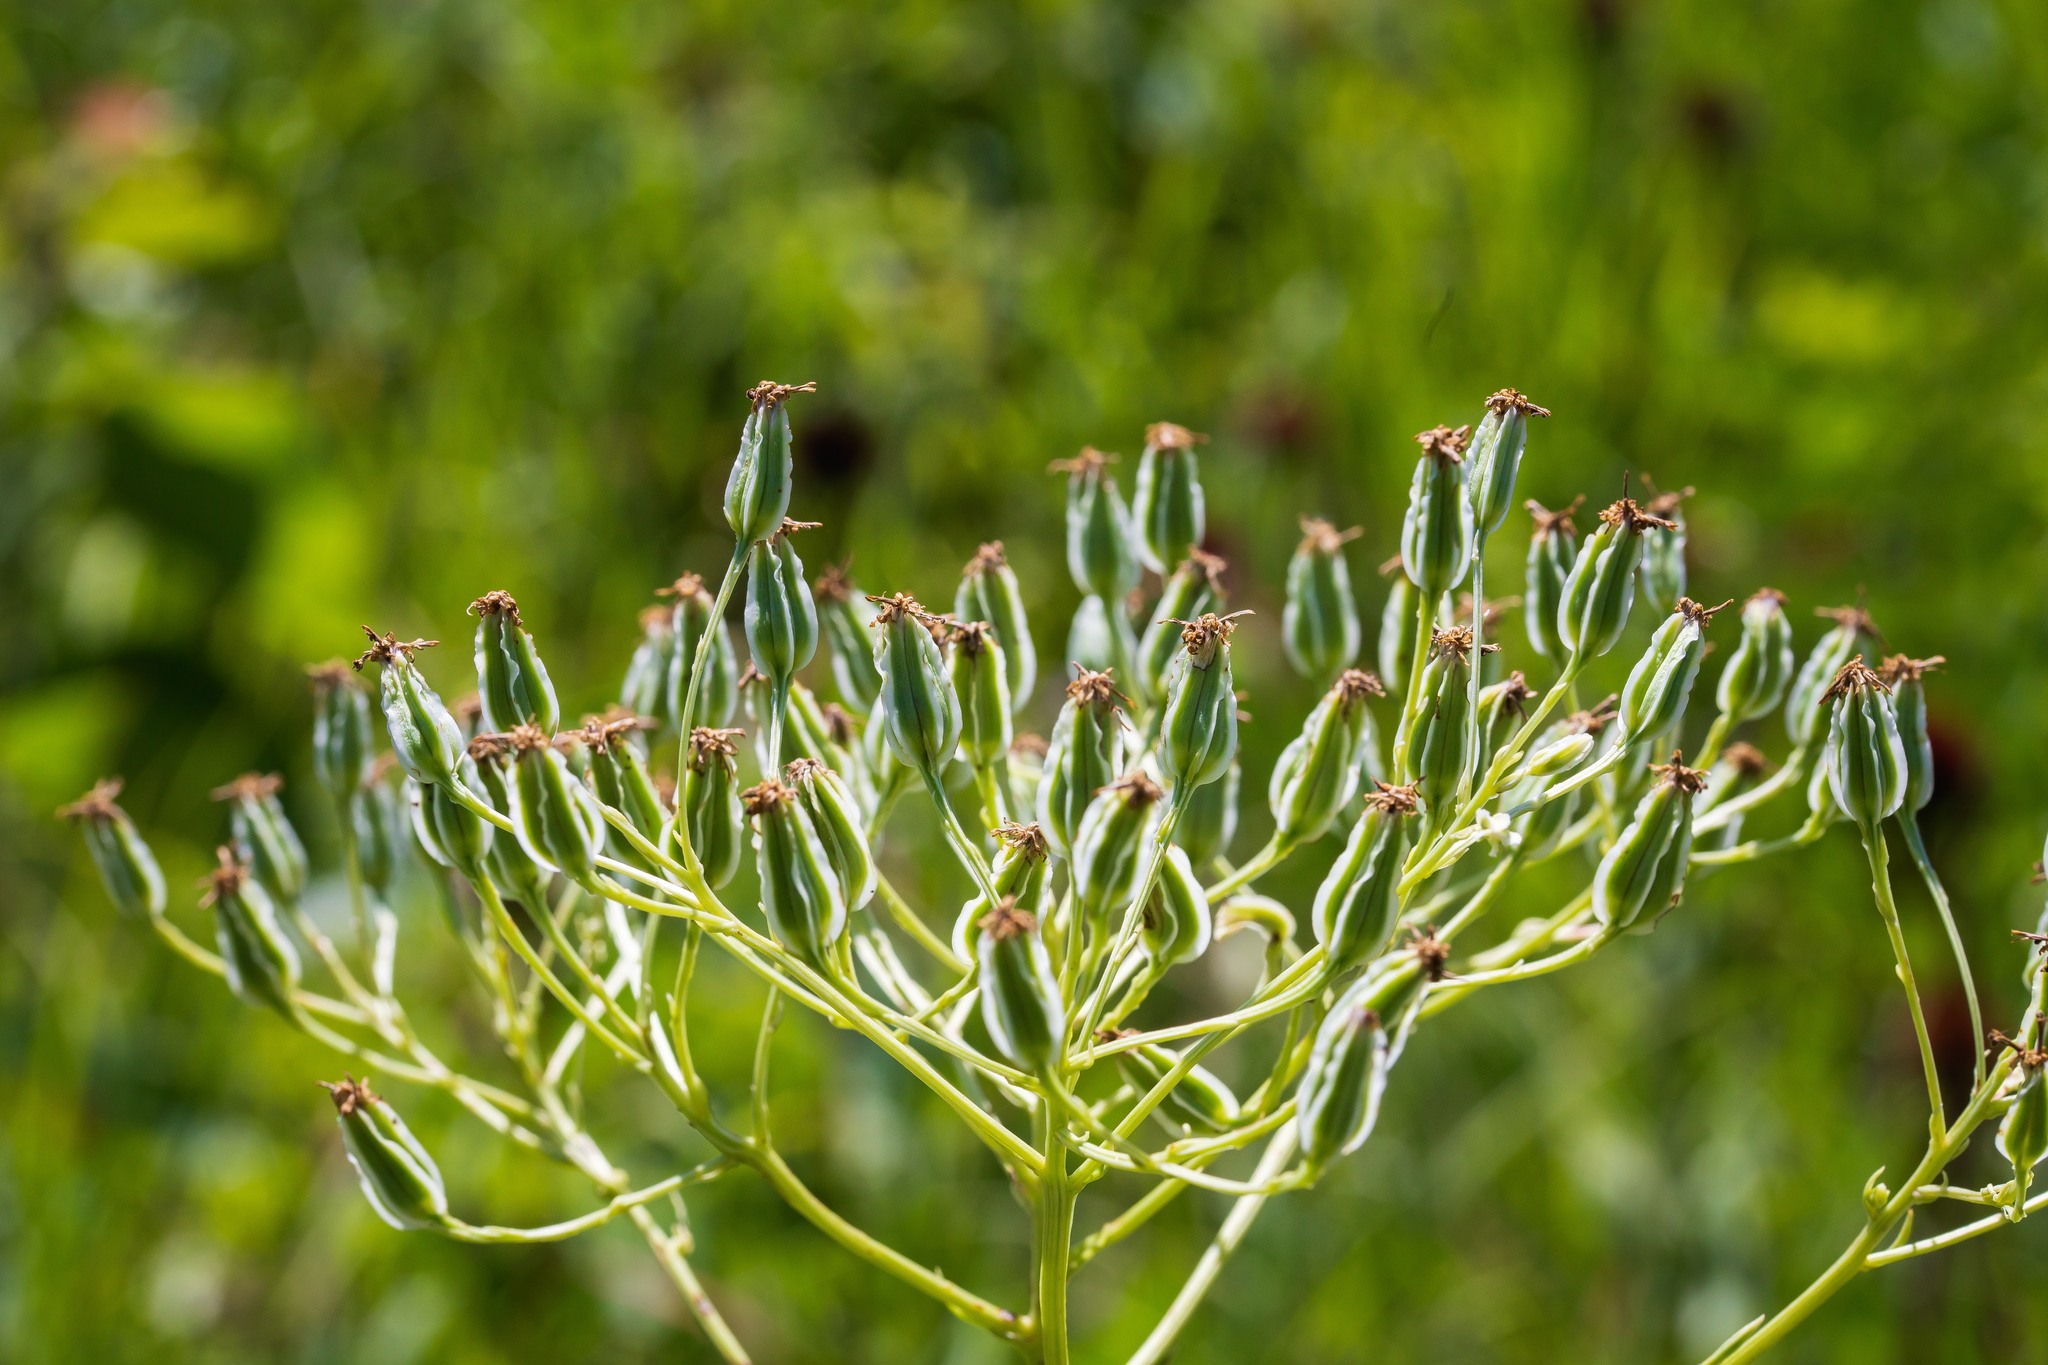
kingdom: Plantae
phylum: Tracheophyta
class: Magnoliopsida
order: Asterales
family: Asteraceae
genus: Arnoglossum
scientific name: Arnoglossum plantagineum
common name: Groove-stemmed indian-plantain
